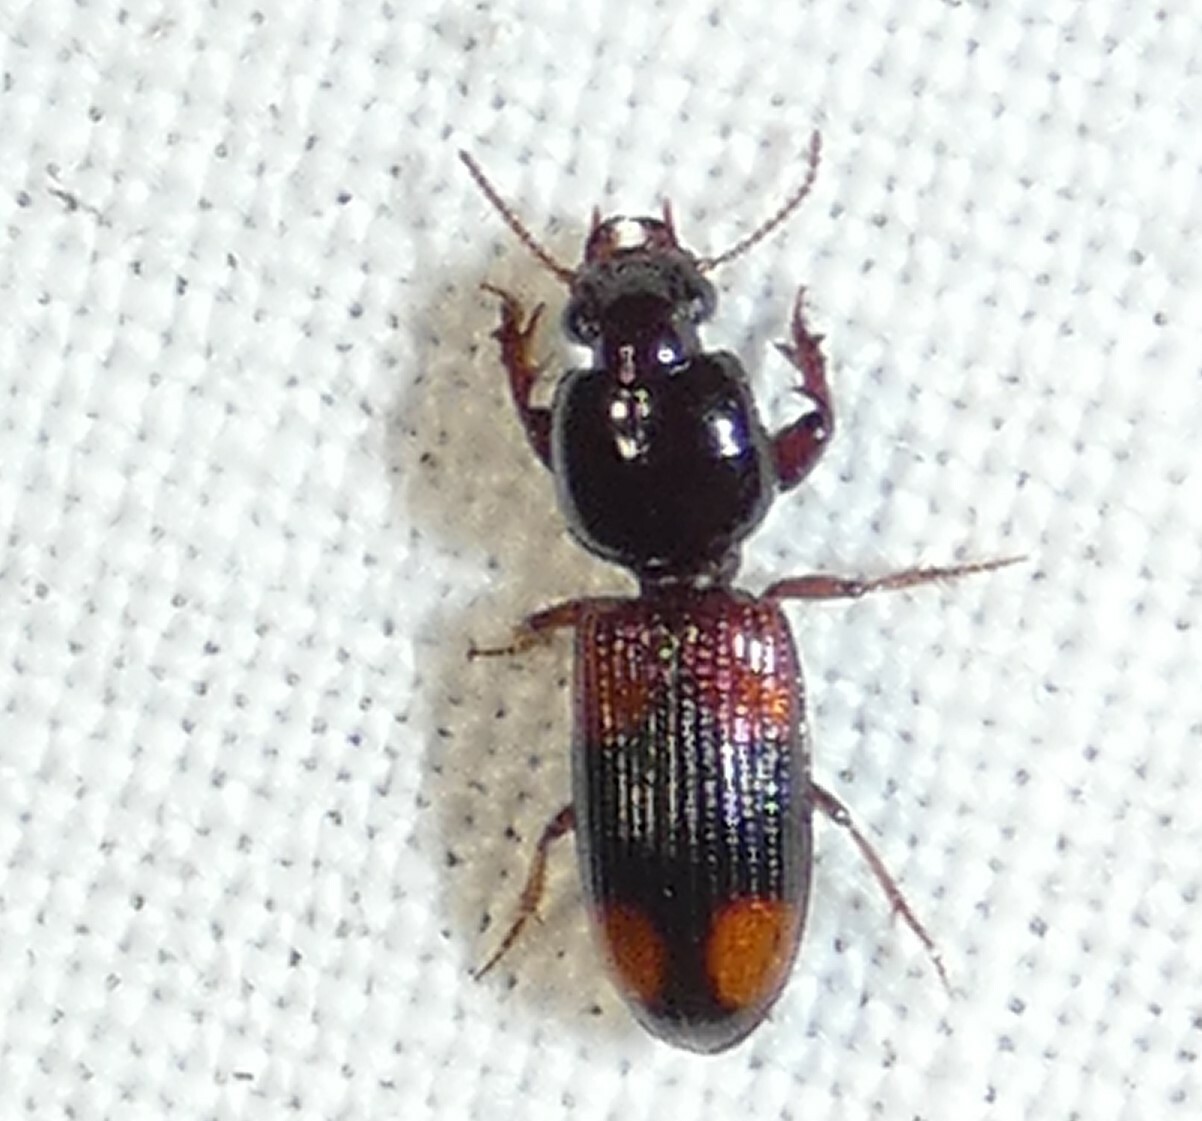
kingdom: Animalia
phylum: Arthropoda
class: Insecta
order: Coleoptera
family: Carabidae
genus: Clivina
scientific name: Clivina bipustulata
